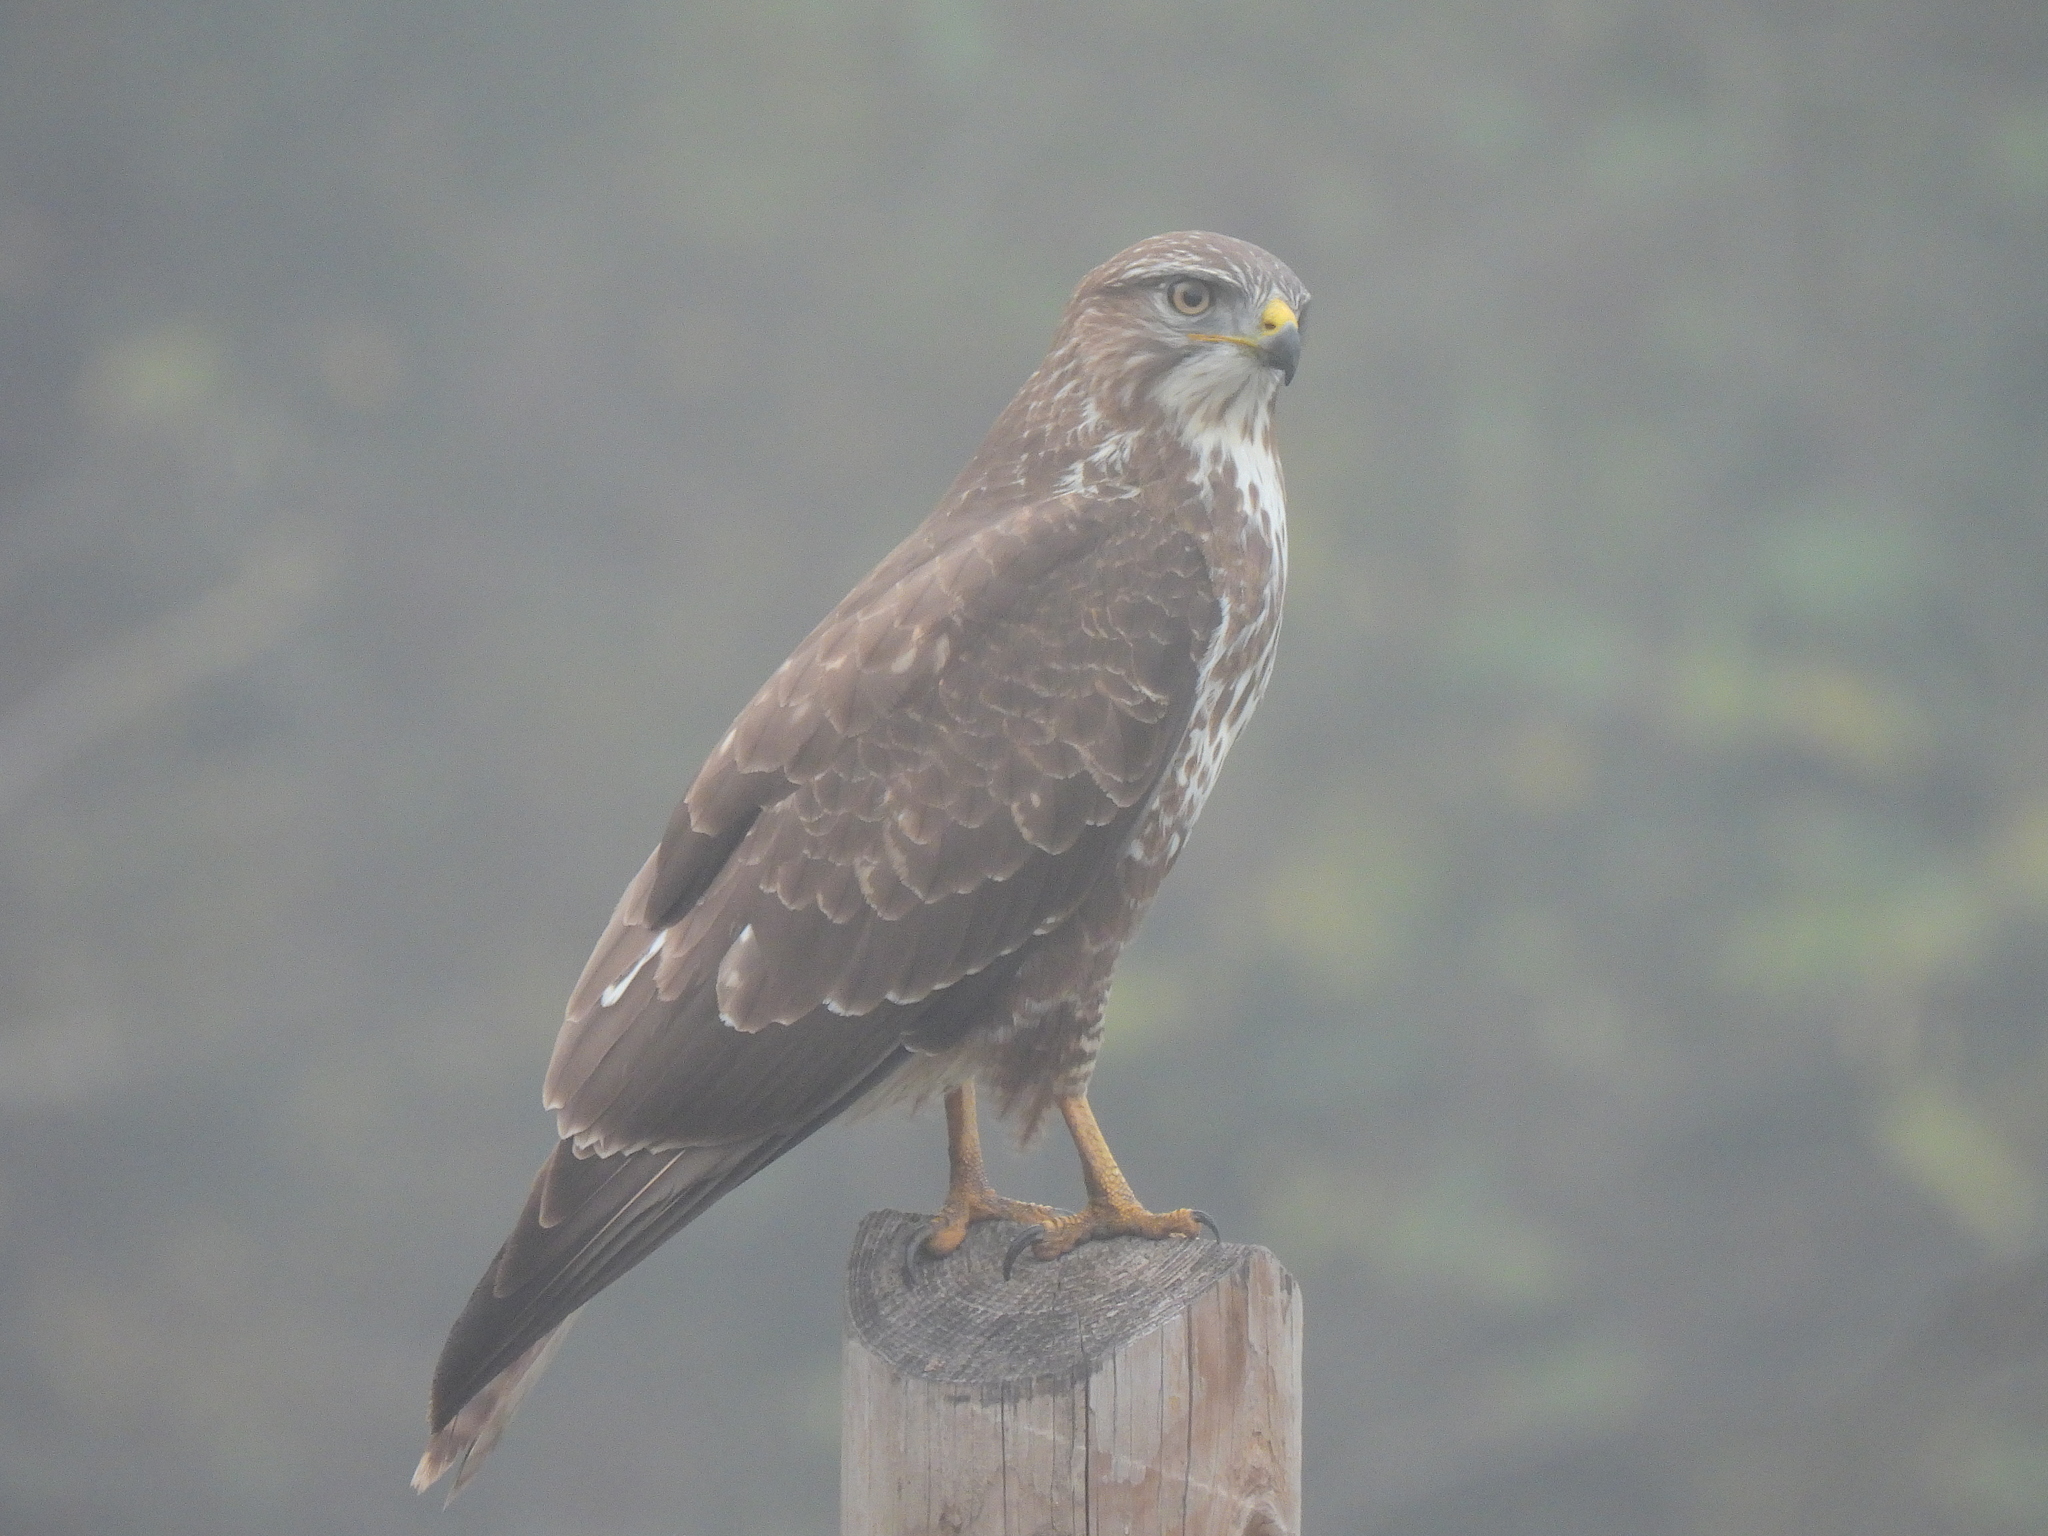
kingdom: Animalia
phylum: Chordata
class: Aves
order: Accipitriformes
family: Accipitridae
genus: Buteo
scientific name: Buteo buteo
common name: Common buzzard
